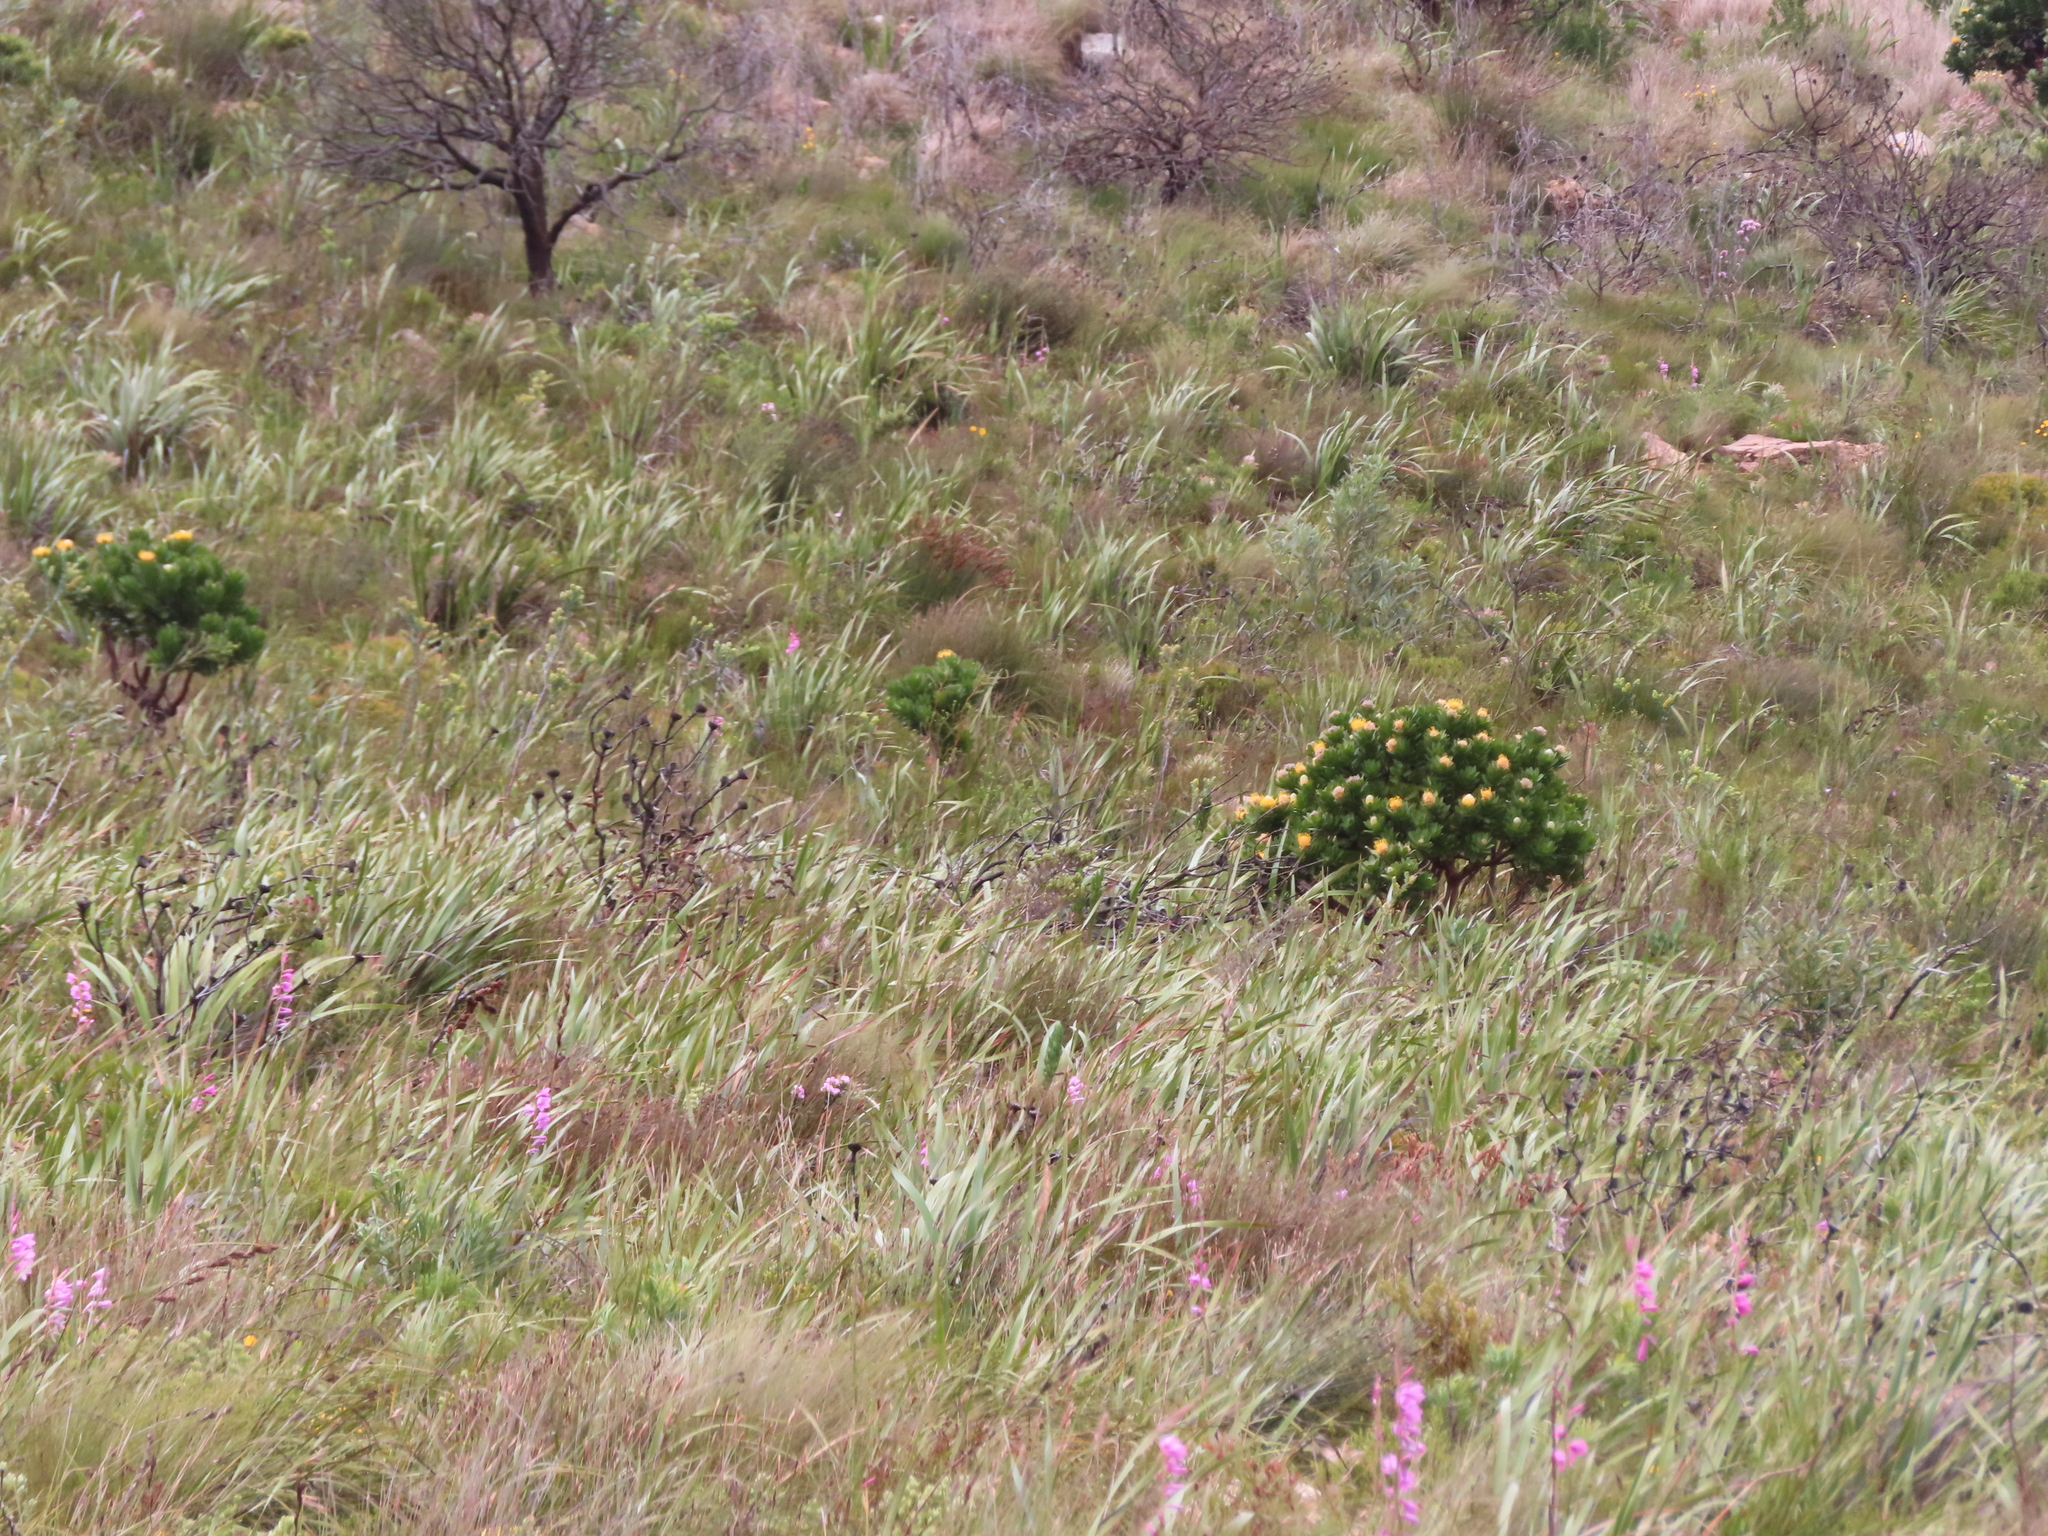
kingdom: Plantae
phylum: Tracheophyta
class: Magnoliopsida
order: Proteales
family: Proteaceae
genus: Leucospermum
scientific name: Leucospermum conocarpodendron
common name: Tree pincushion
